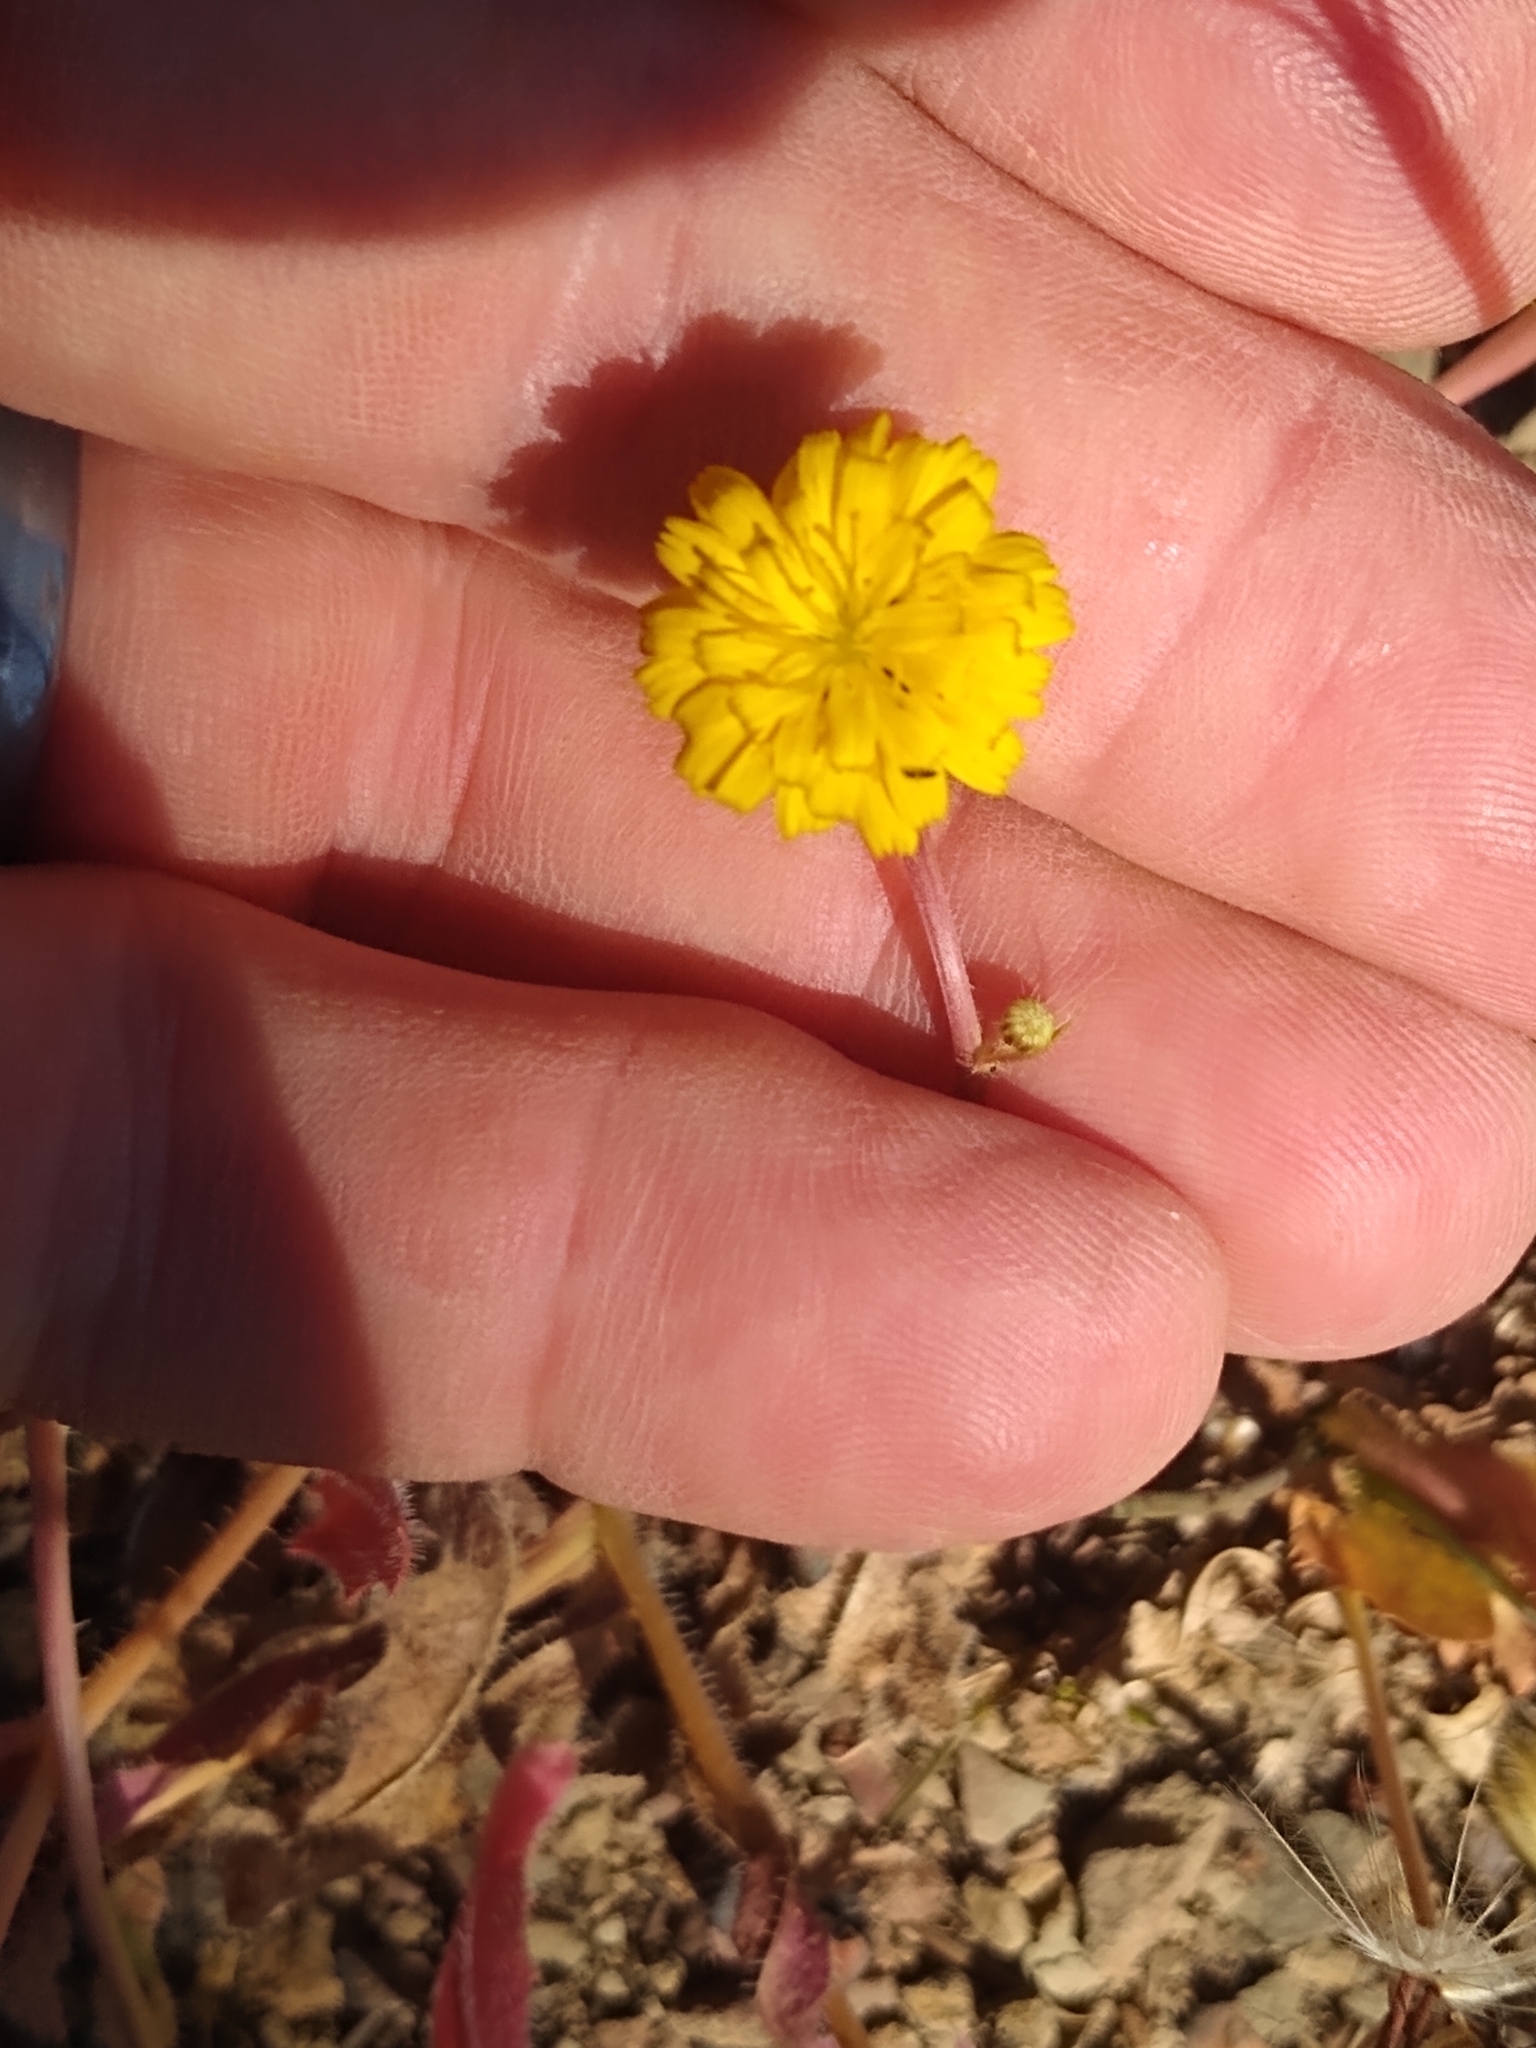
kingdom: Plantae
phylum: Tracheophyta
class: Magnoliopsida
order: Asterales
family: Asteraceae
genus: Hedypnois
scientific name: Hedypnois rhagadioloides
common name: Cretan weed
